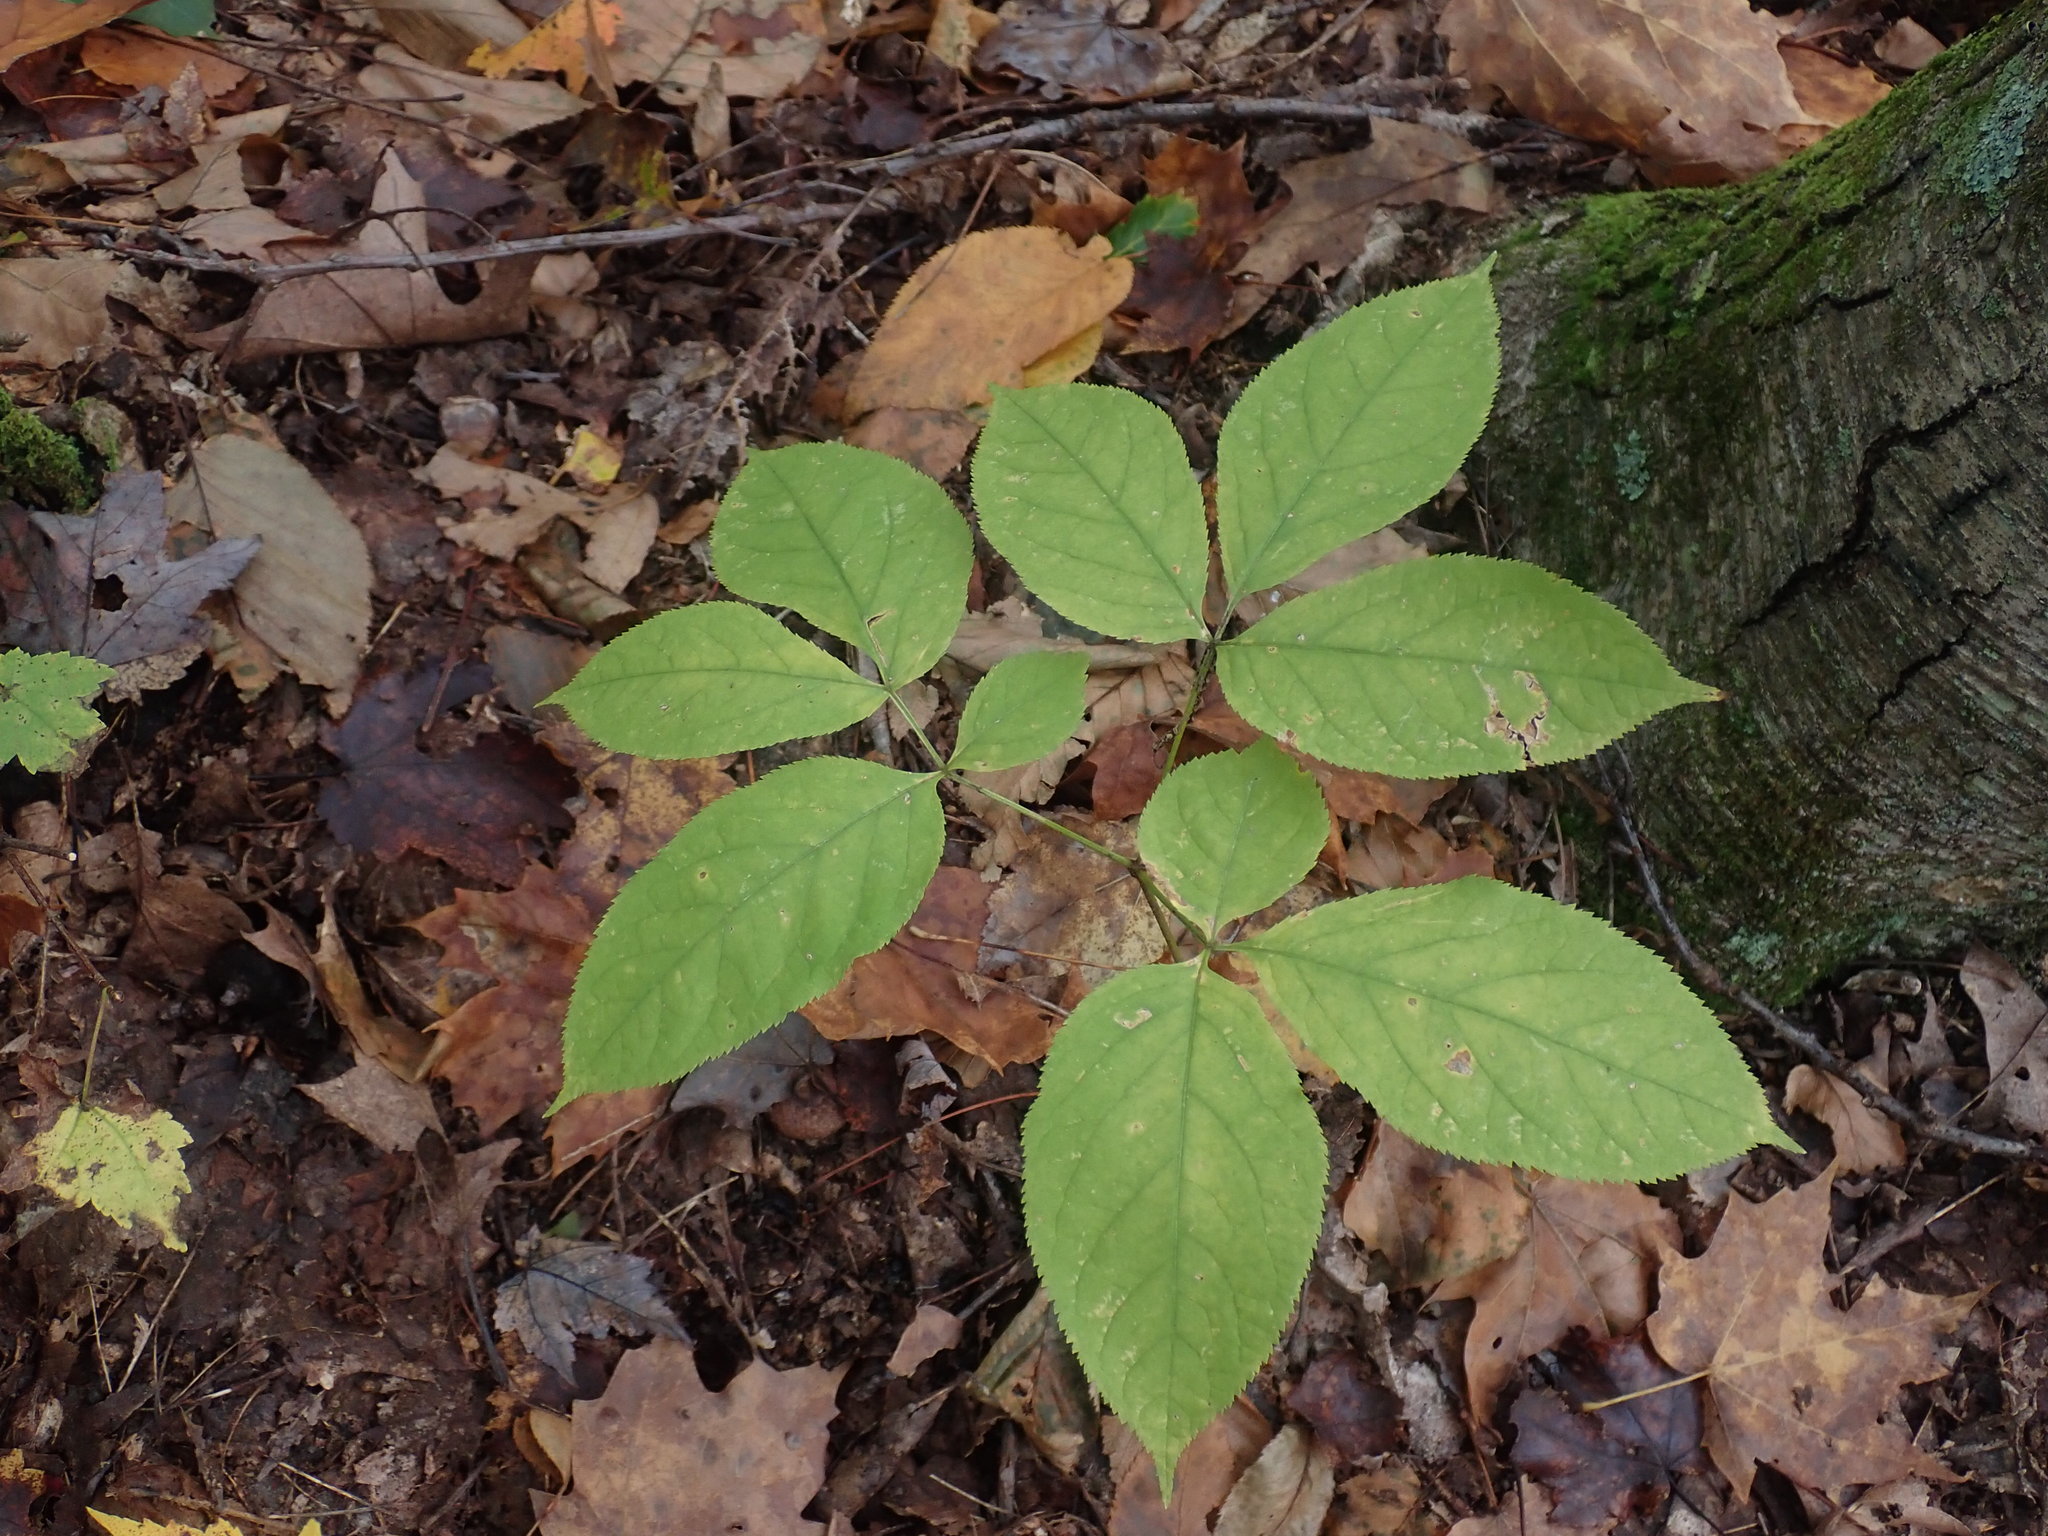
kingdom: Plantae
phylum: Tracheophyta
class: Magnoliopsida
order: Apiales
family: Araliaceae
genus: Aralia
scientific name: Aralia nudicaulis
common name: Wild sarsaparilla
